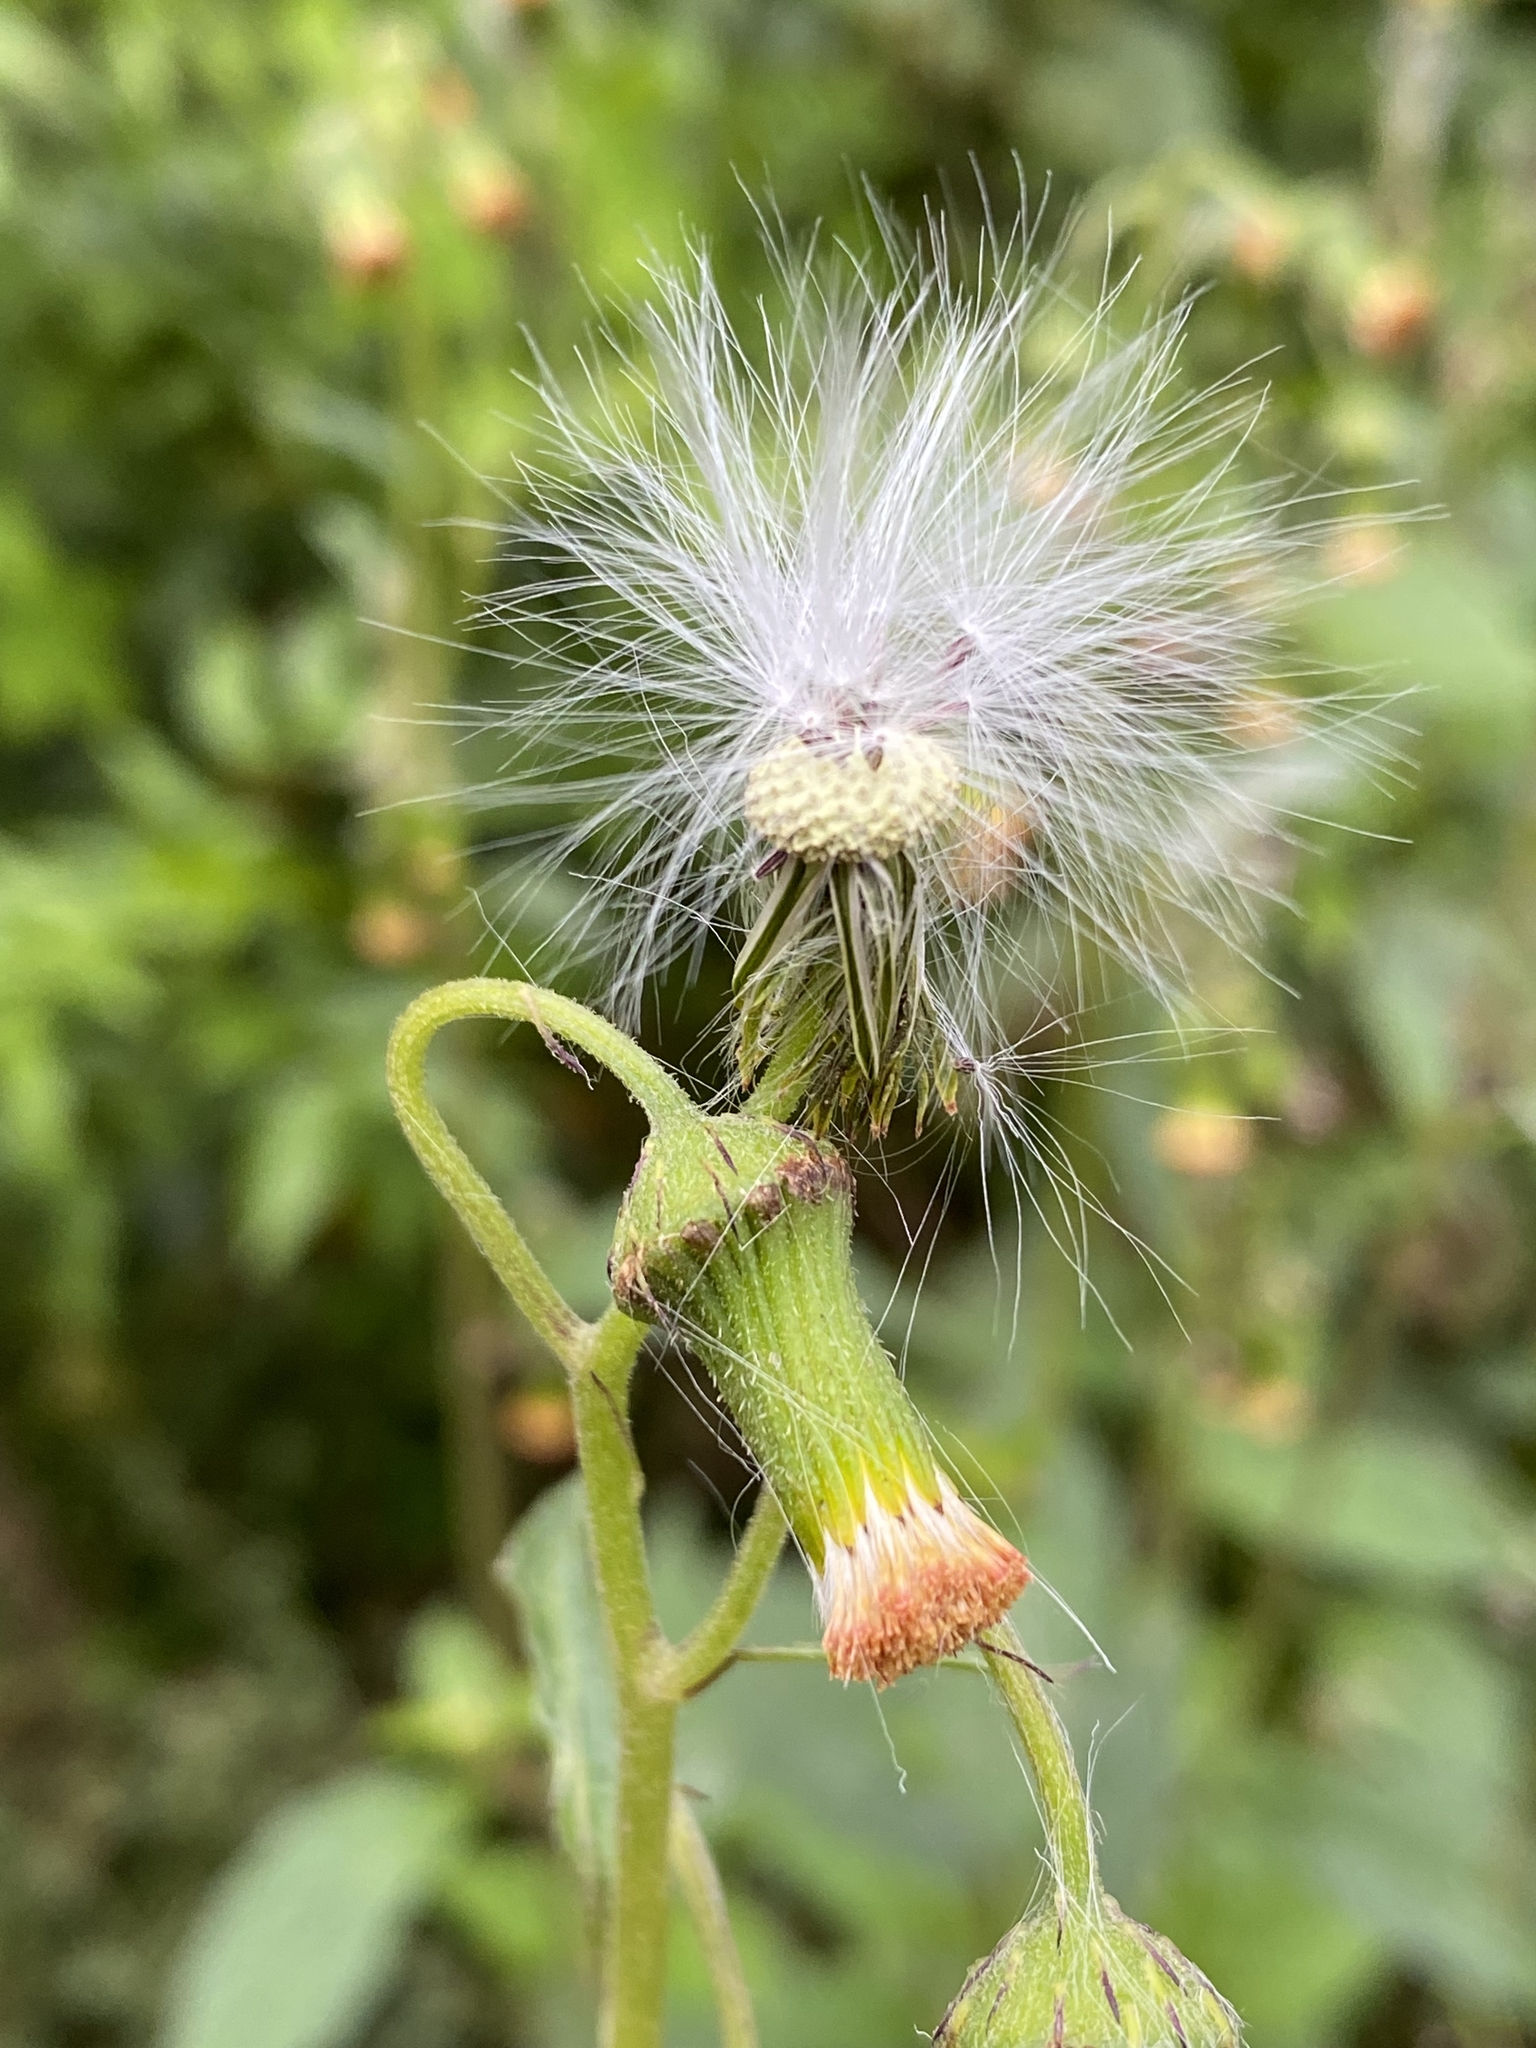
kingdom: Plantae
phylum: Tracheophyta
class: Magnoliopsida
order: Asterales
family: Asteraceae
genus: Crassocephalum
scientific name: Crassocephalum crepidioides
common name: Redflower ragleaf
